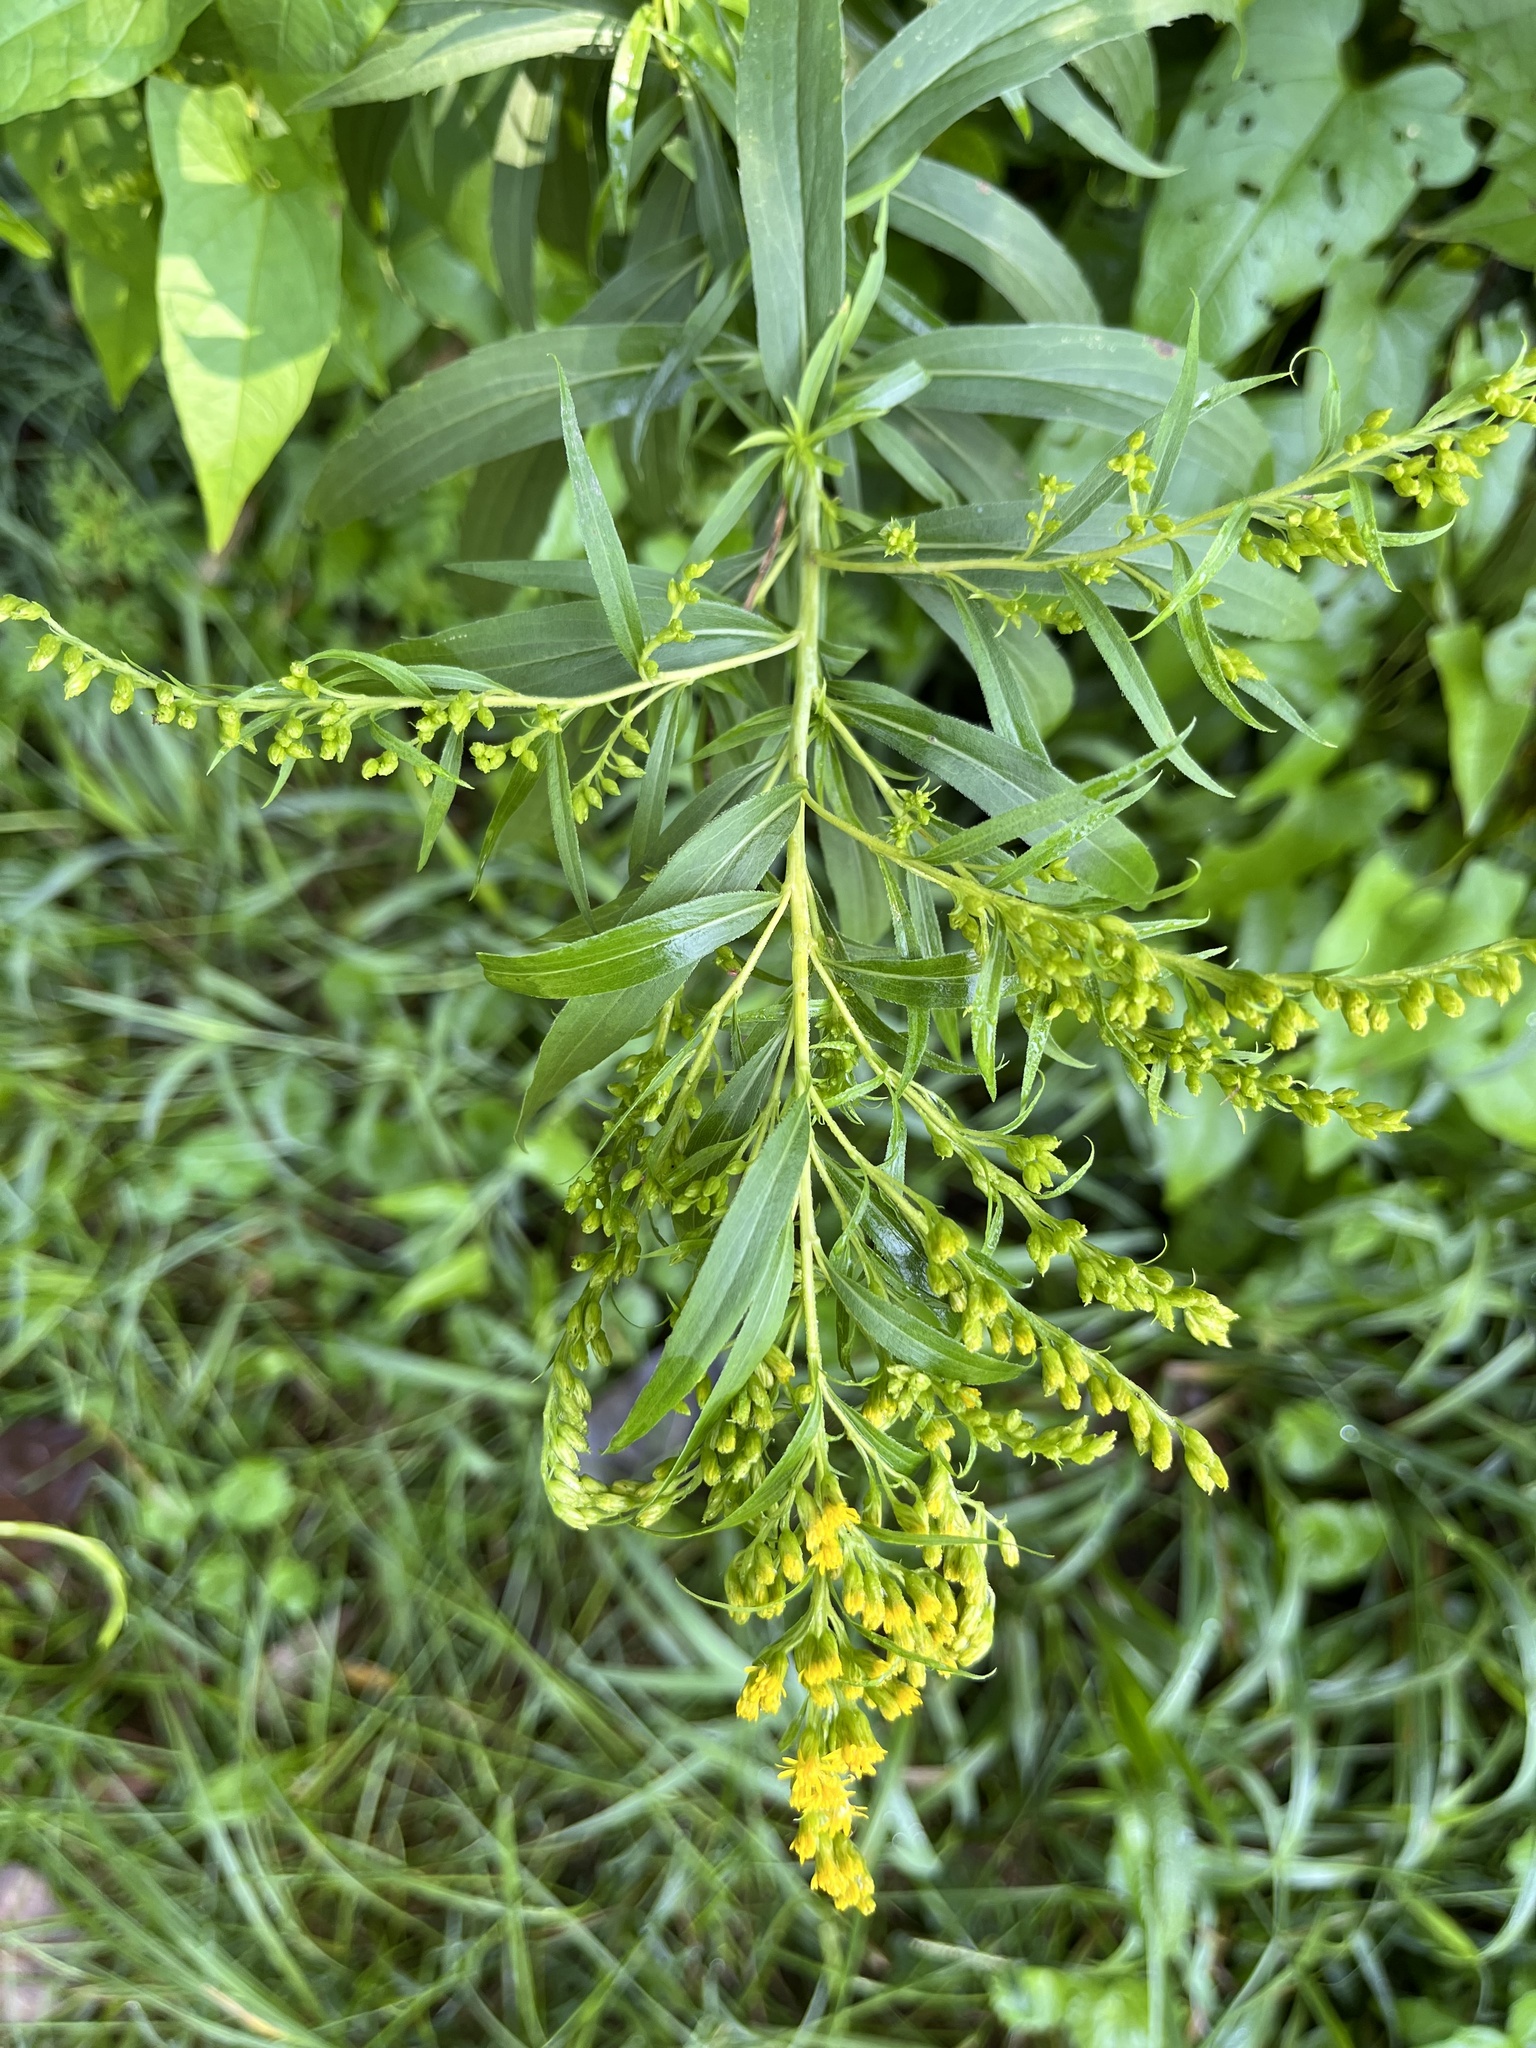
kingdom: Plantae
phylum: Tracheophyta
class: Magnoliopsida
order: Asterales
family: Asteraceae
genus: Solidago
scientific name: Solidago gigantea
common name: Giant goldenrod
